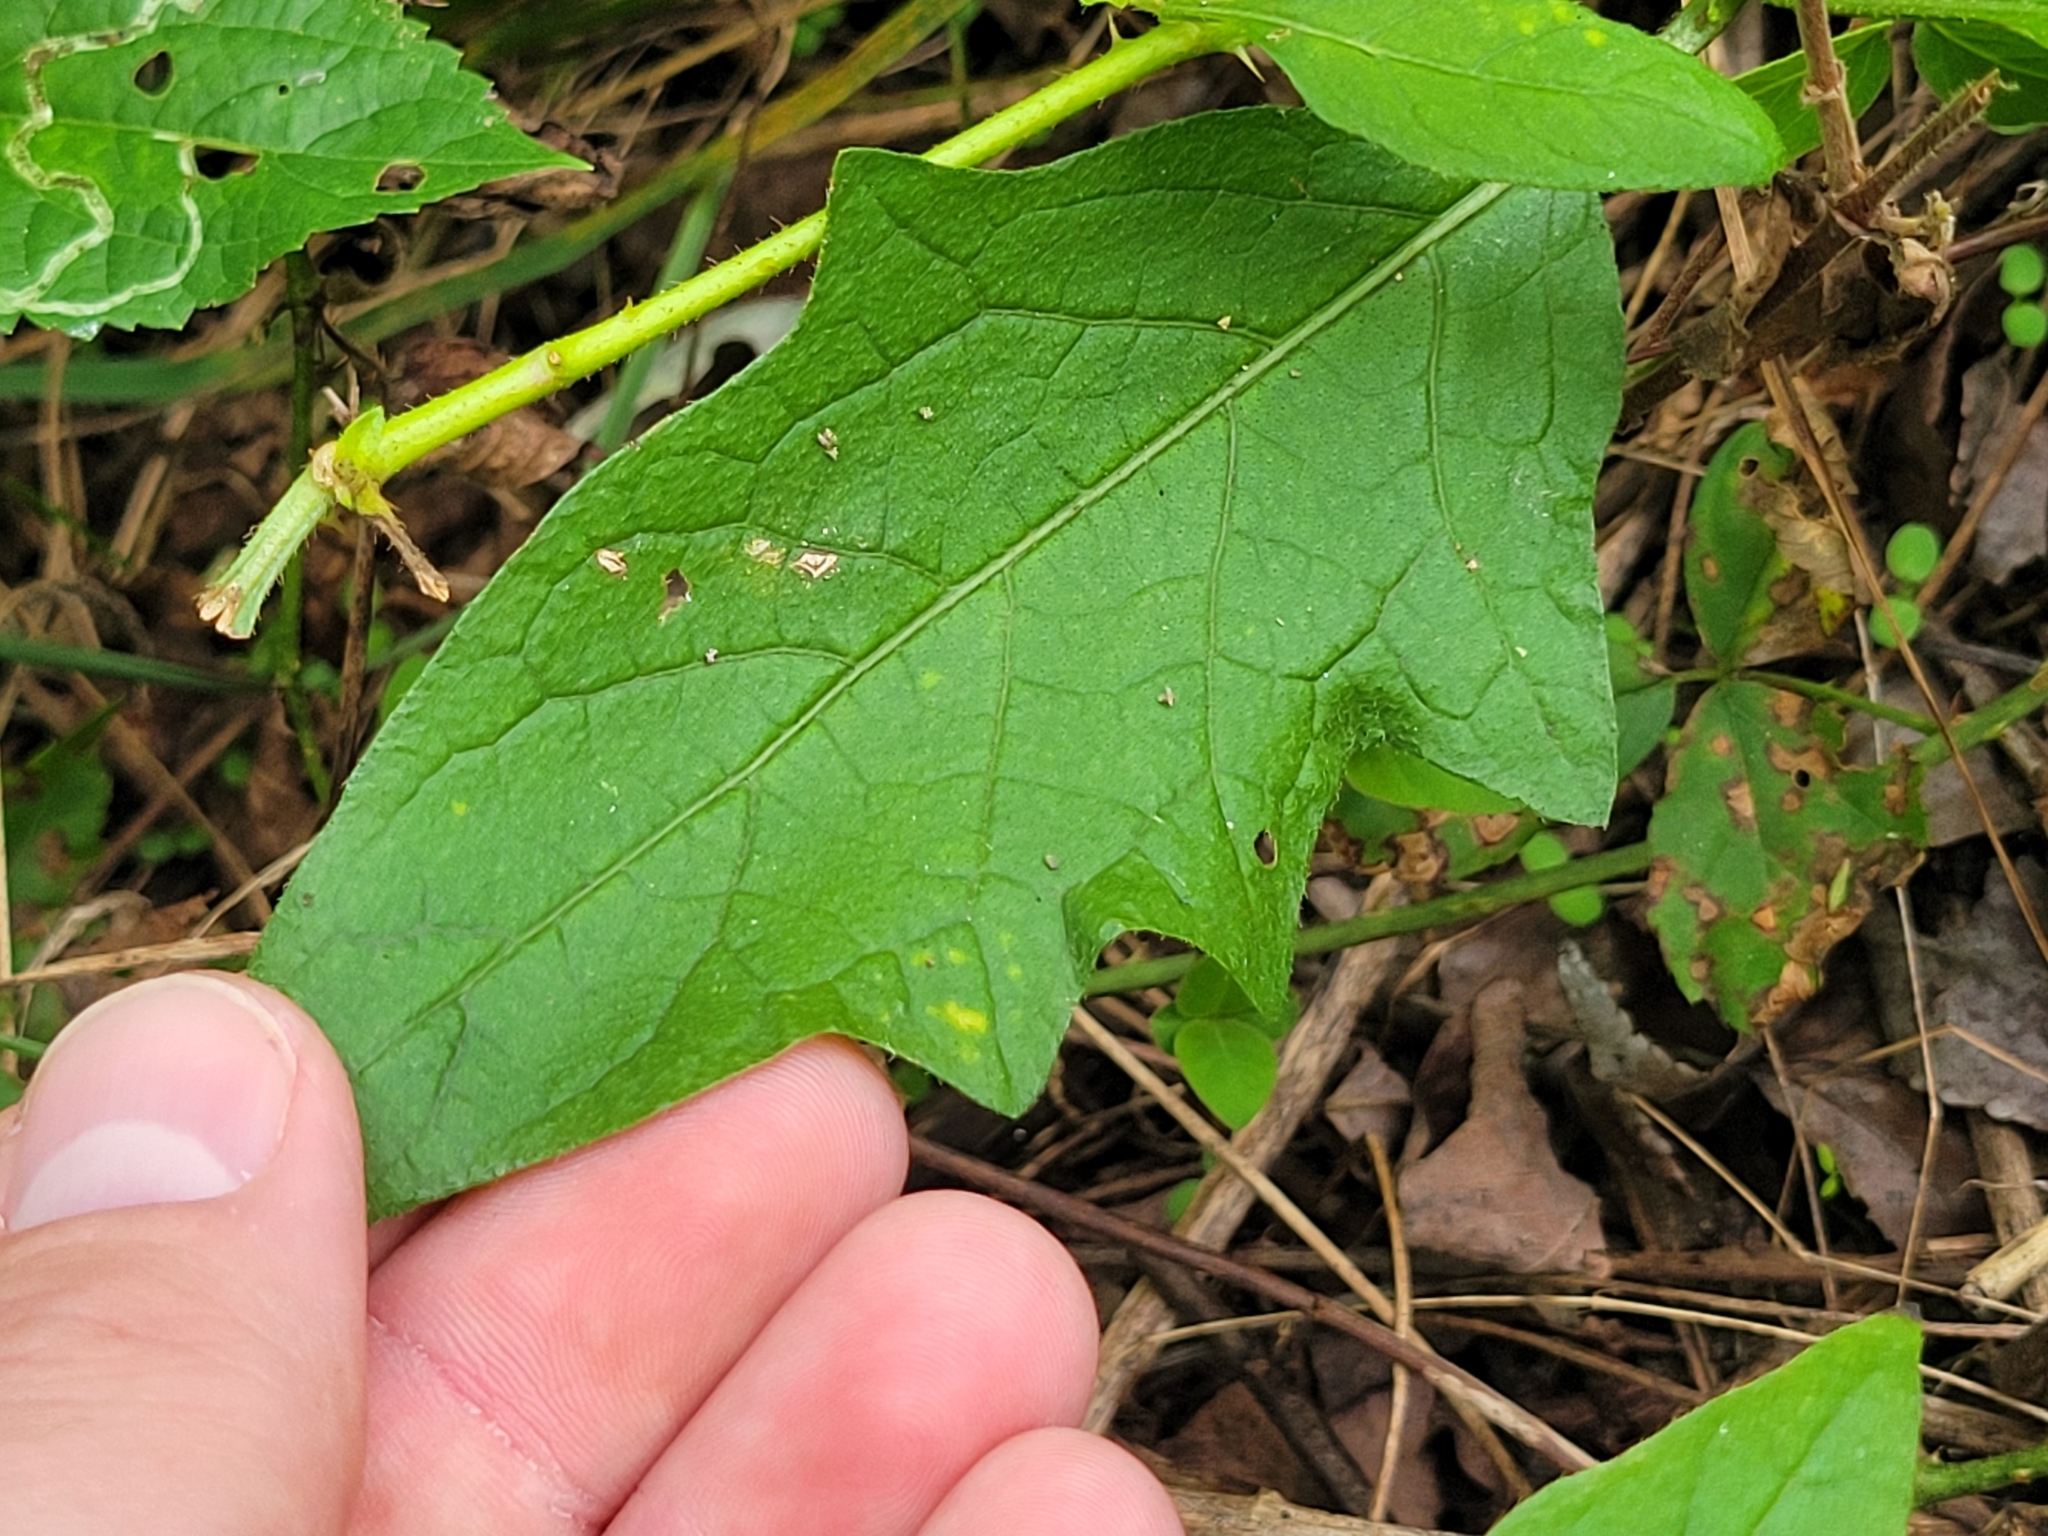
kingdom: Plantae
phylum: Tracheophyta
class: Magnoliopsida
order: Solanales
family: Solanaceae
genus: Solanum
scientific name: Solanum carolinense
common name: Horse-nettle
